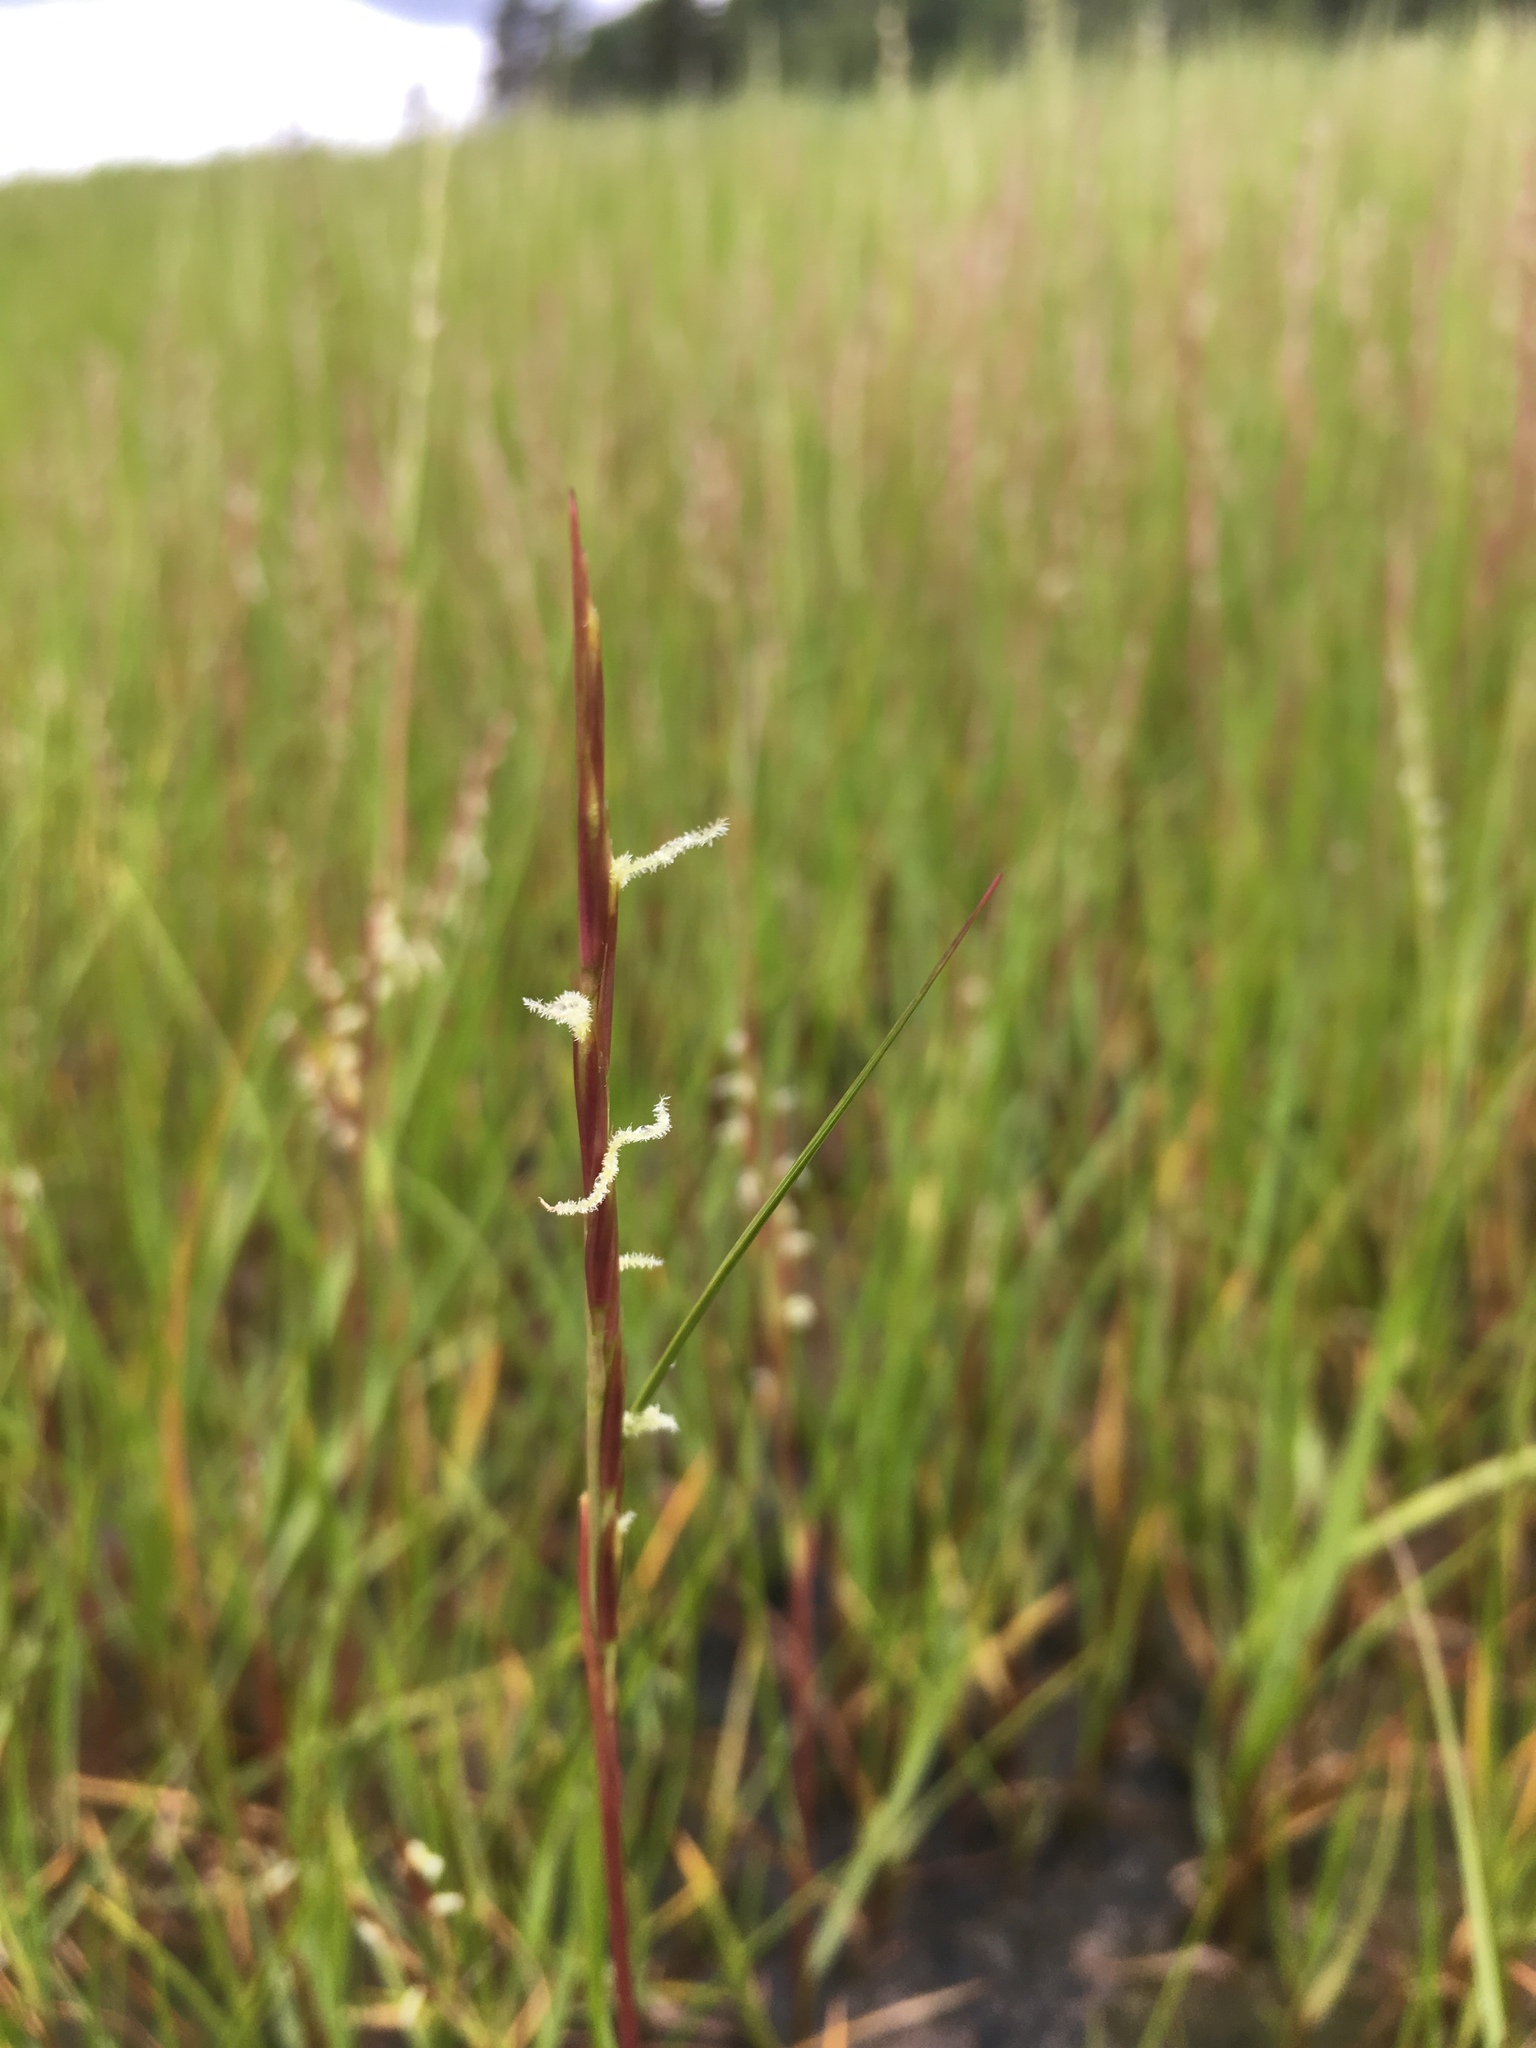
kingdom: Plantae
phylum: Tracheophyta
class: Liliopsida
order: Poales
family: Poaceae
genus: Sporobolus
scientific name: Sporobolus alterniflorus
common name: Atlantic cordgrass
